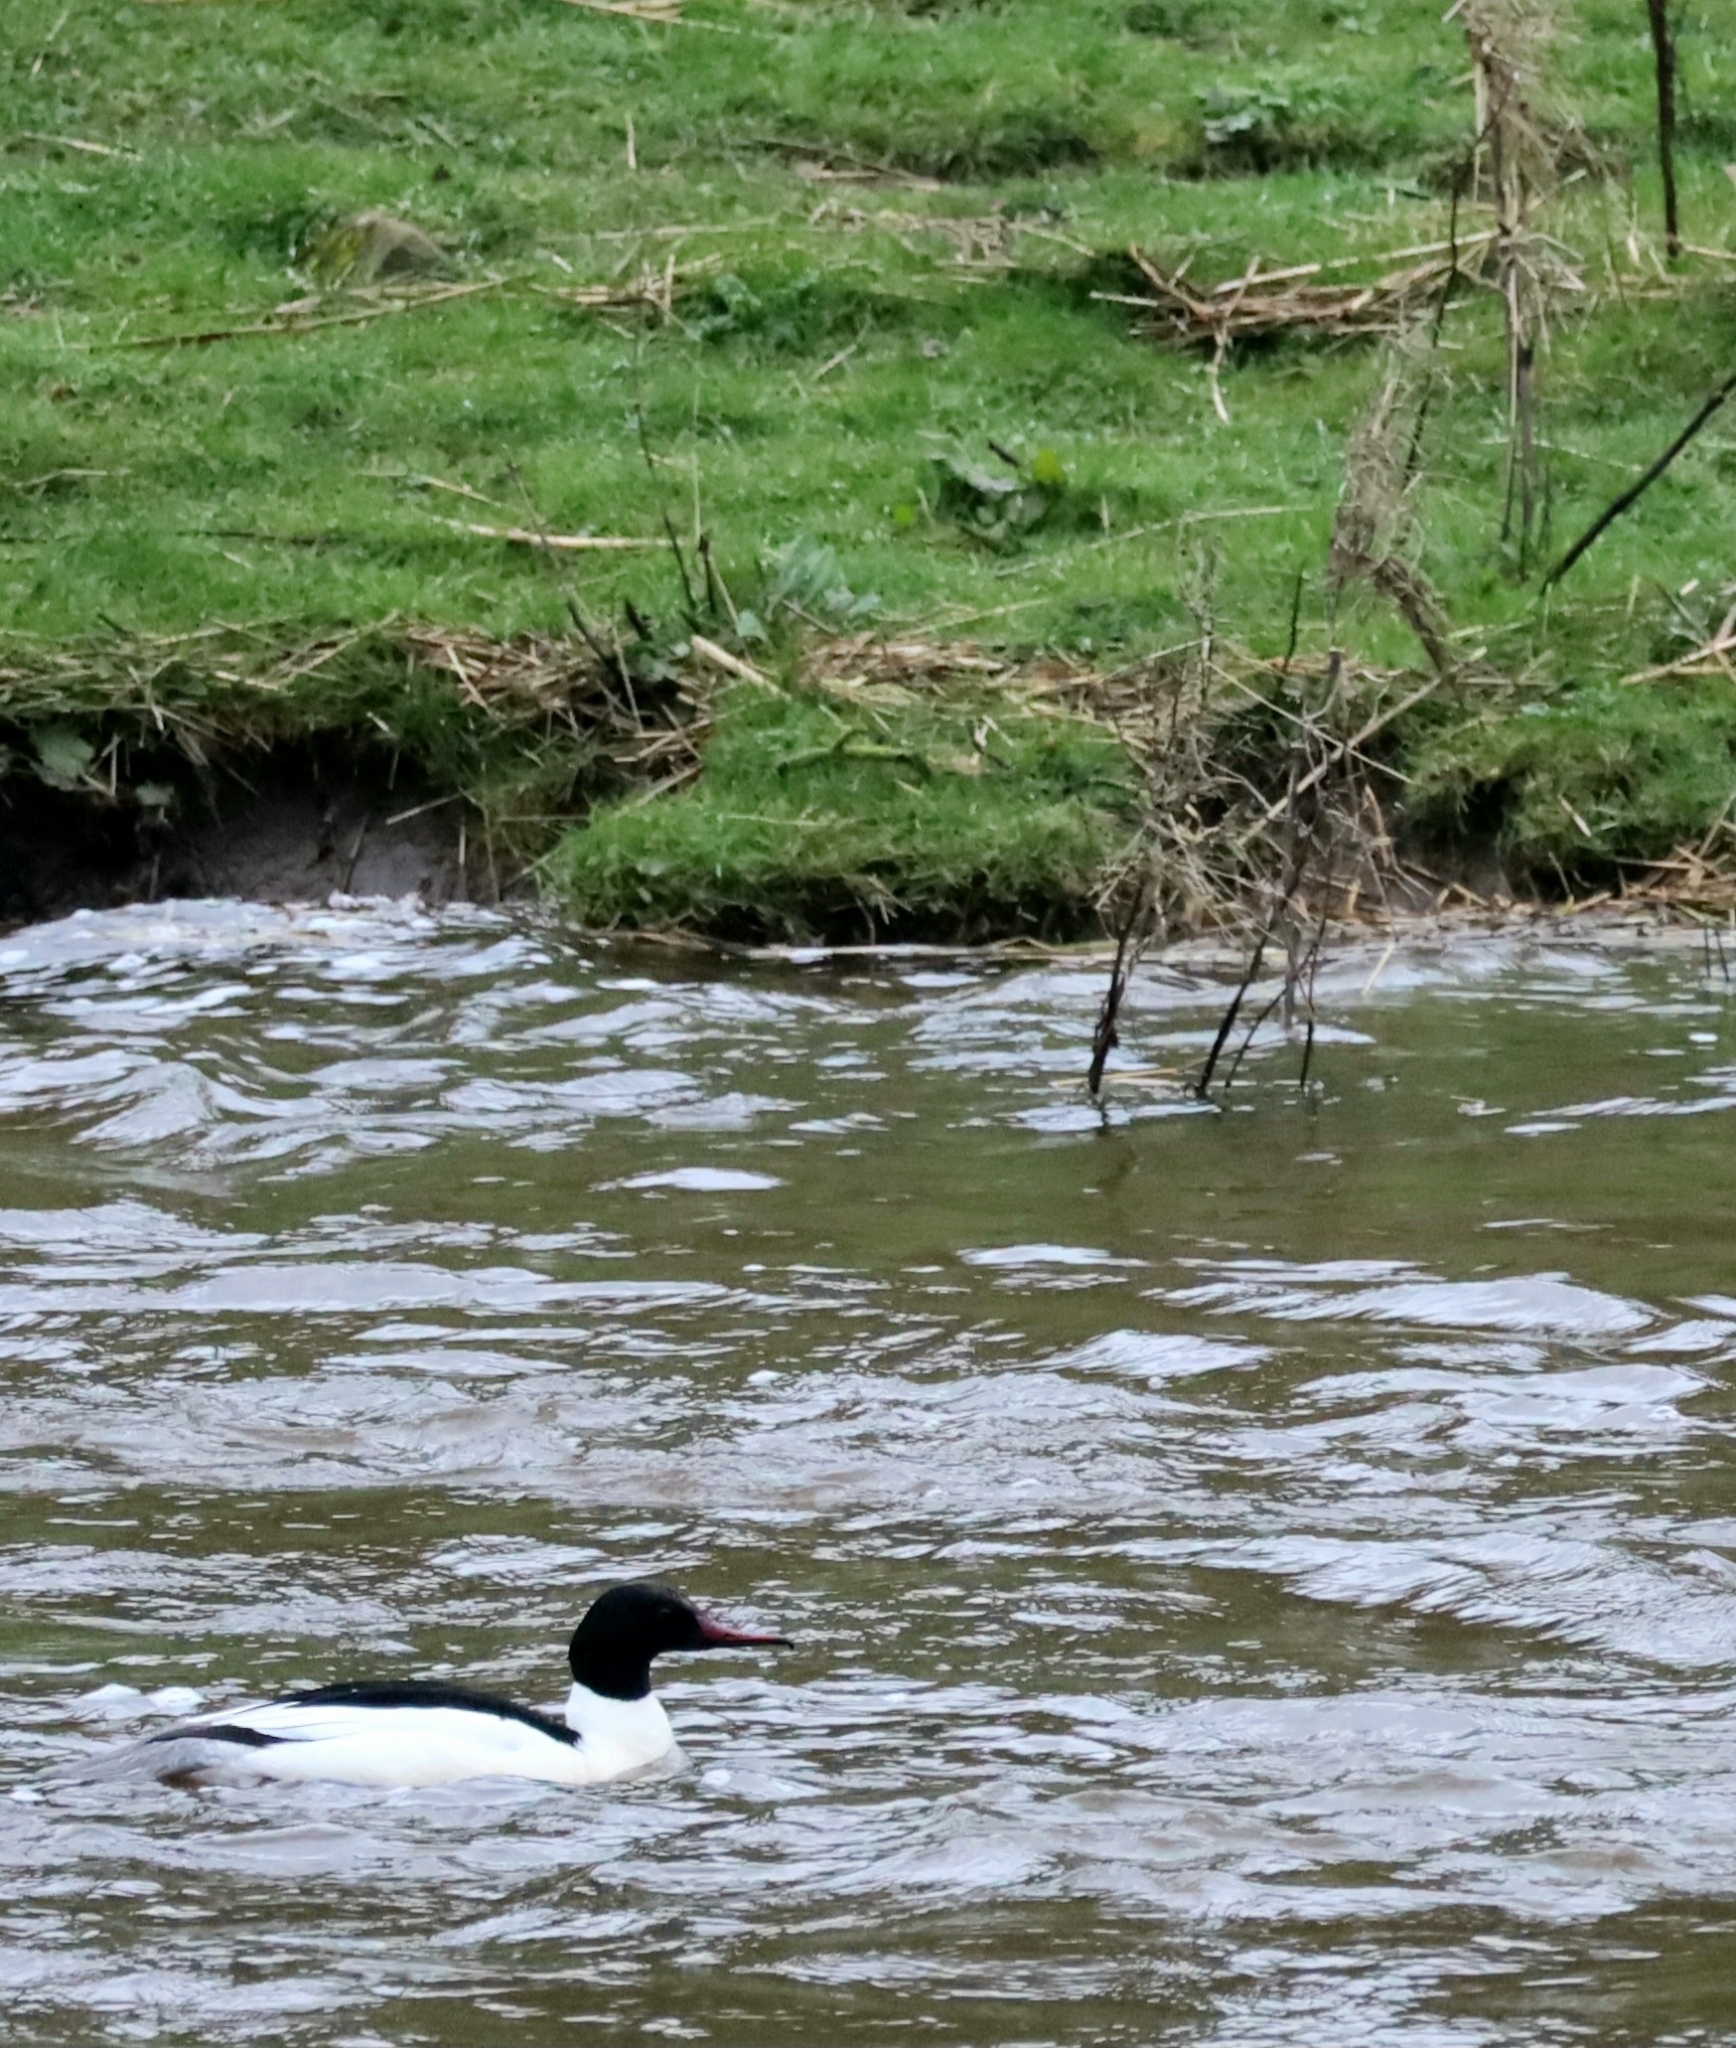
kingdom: Animalia
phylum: Chordata
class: Aves
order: Anseriformes
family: Anatidae
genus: Mergus
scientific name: Mergus merganser
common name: Common merganser
